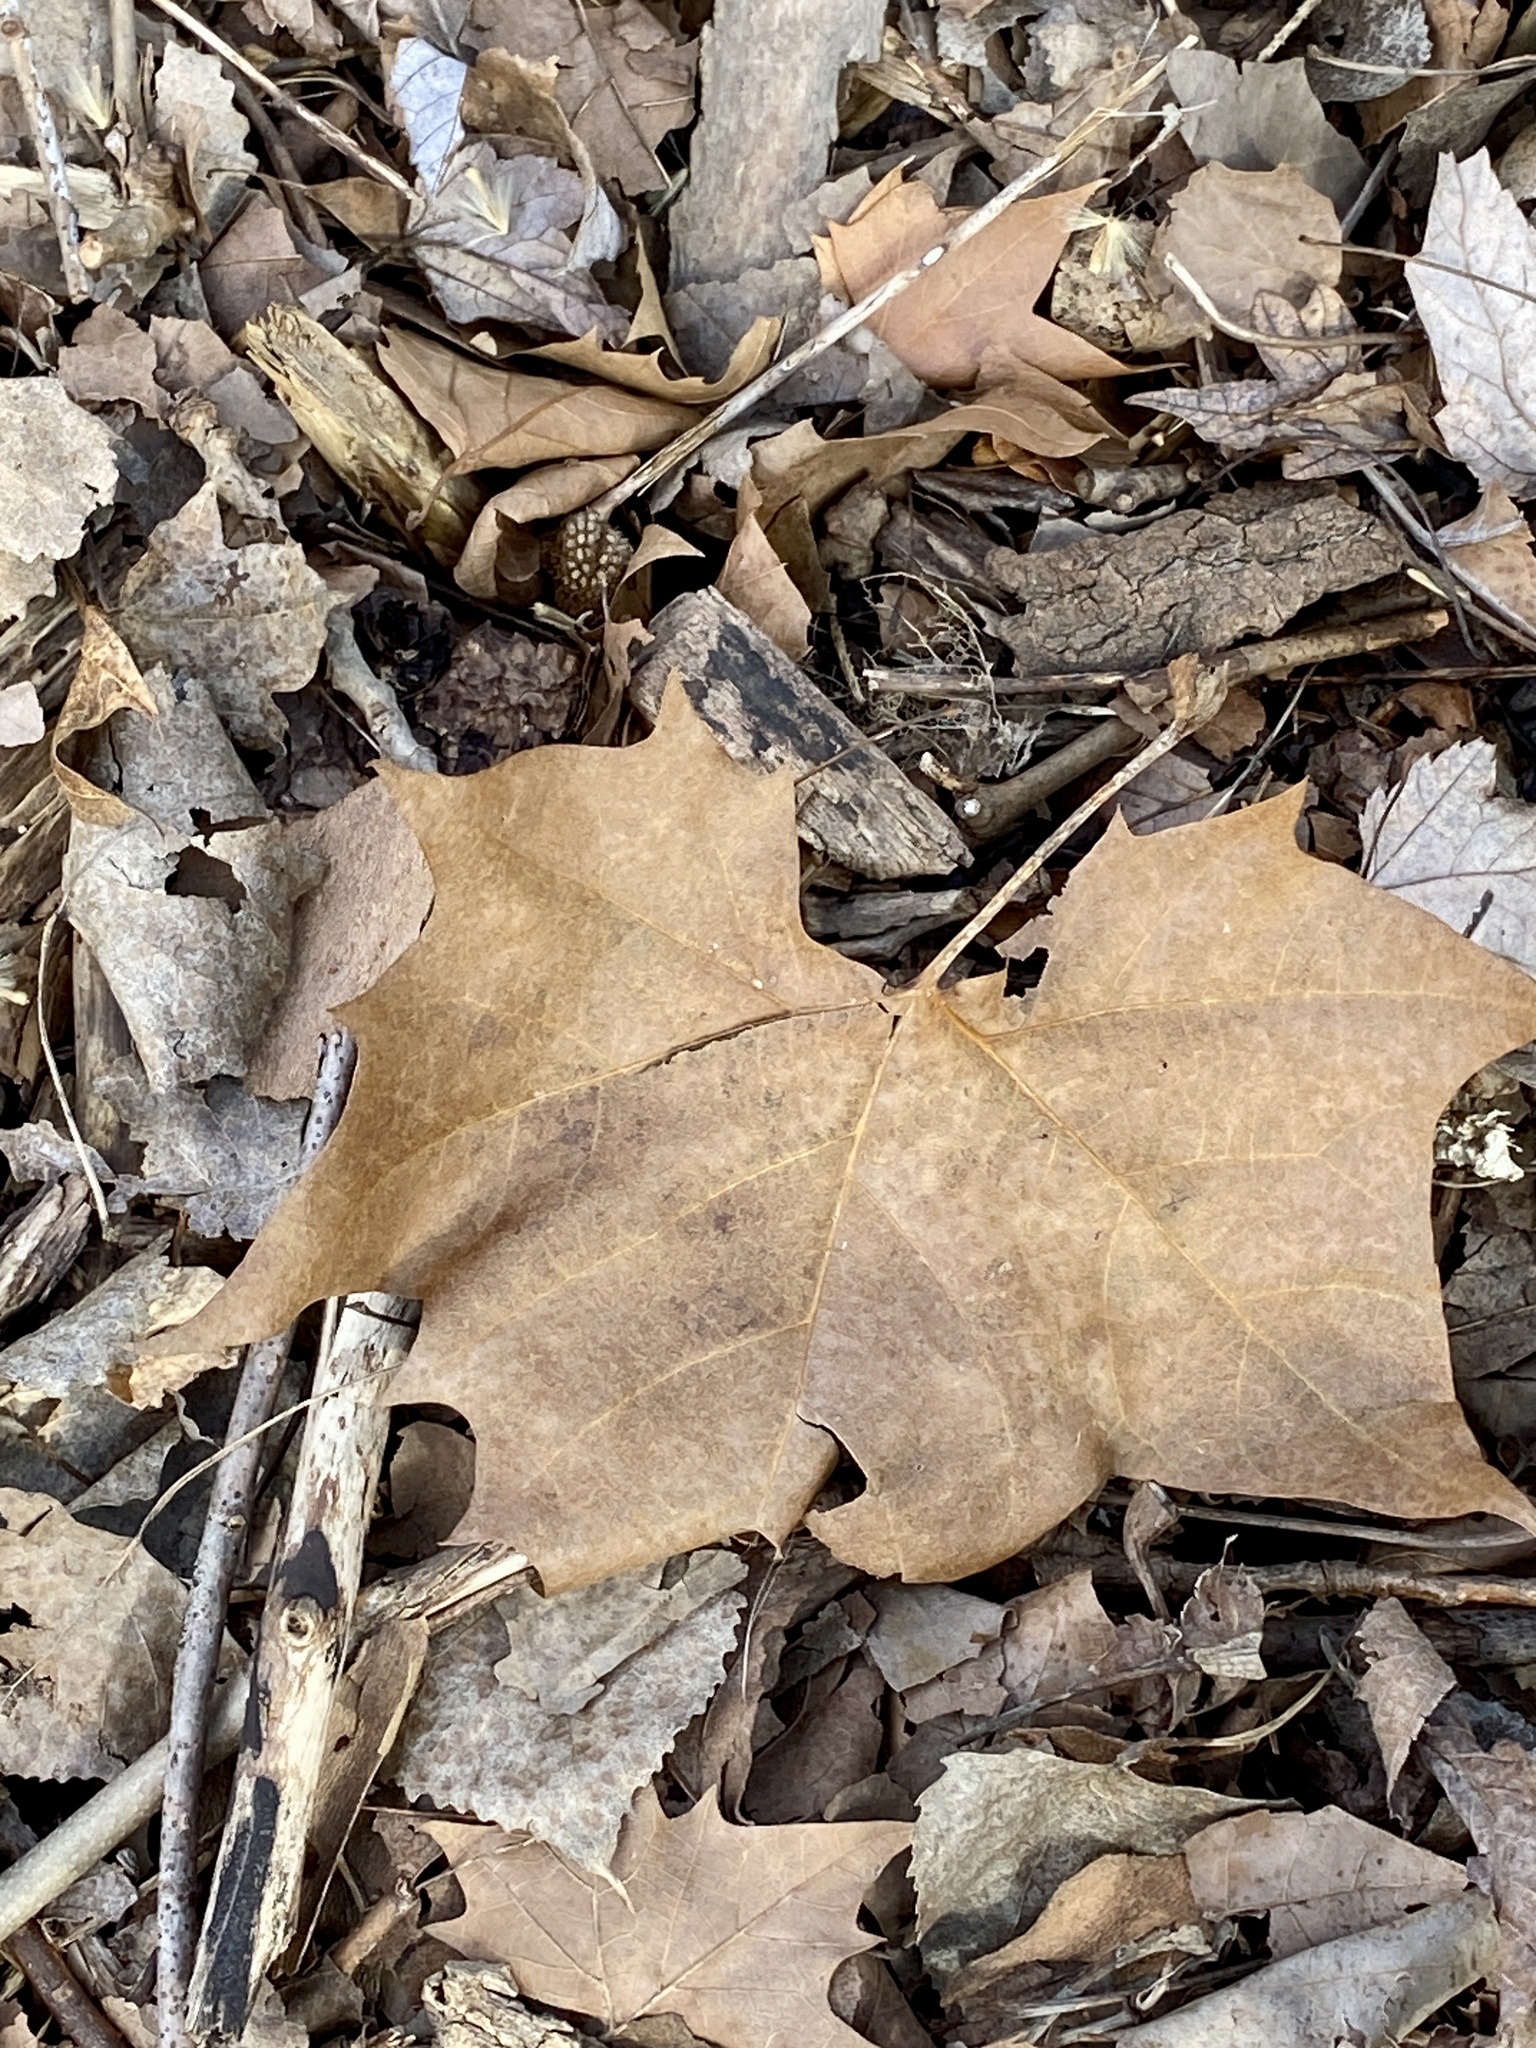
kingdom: Plantae
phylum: Tracheophyta
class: Magnoliopsida
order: Proteales
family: Platanaceae
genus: Platanus
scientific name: Platanus occidentalis
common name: American sycamore
